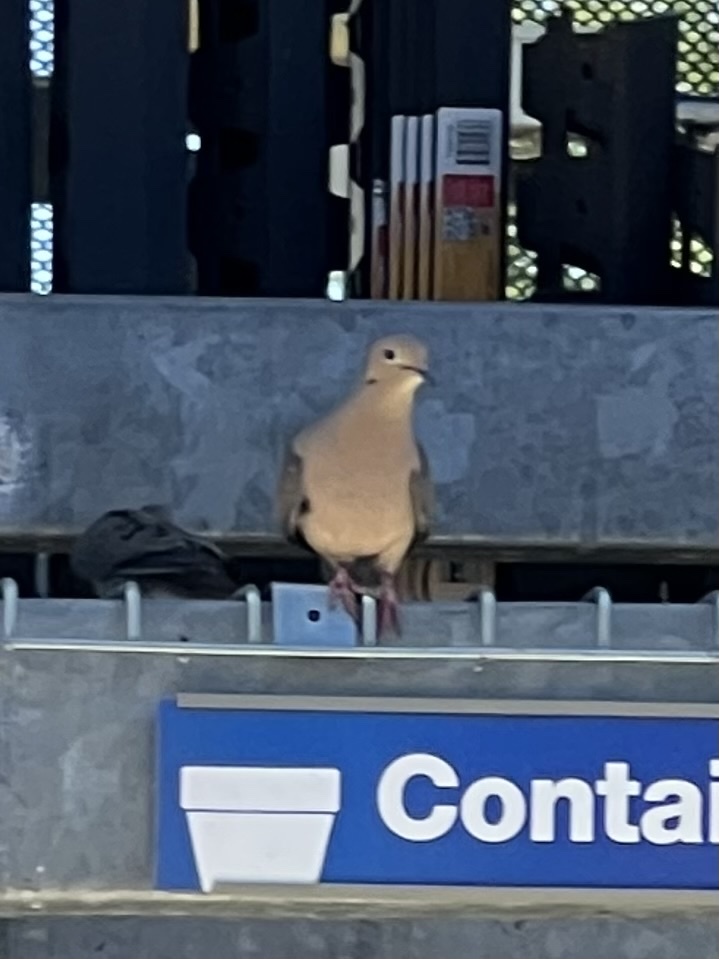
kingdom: Animalia
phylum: Chordata
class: Aves
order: Columbiformes
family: Columbidae
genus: Zenaida
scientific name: Zenaida macroura
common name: Mourning dove
